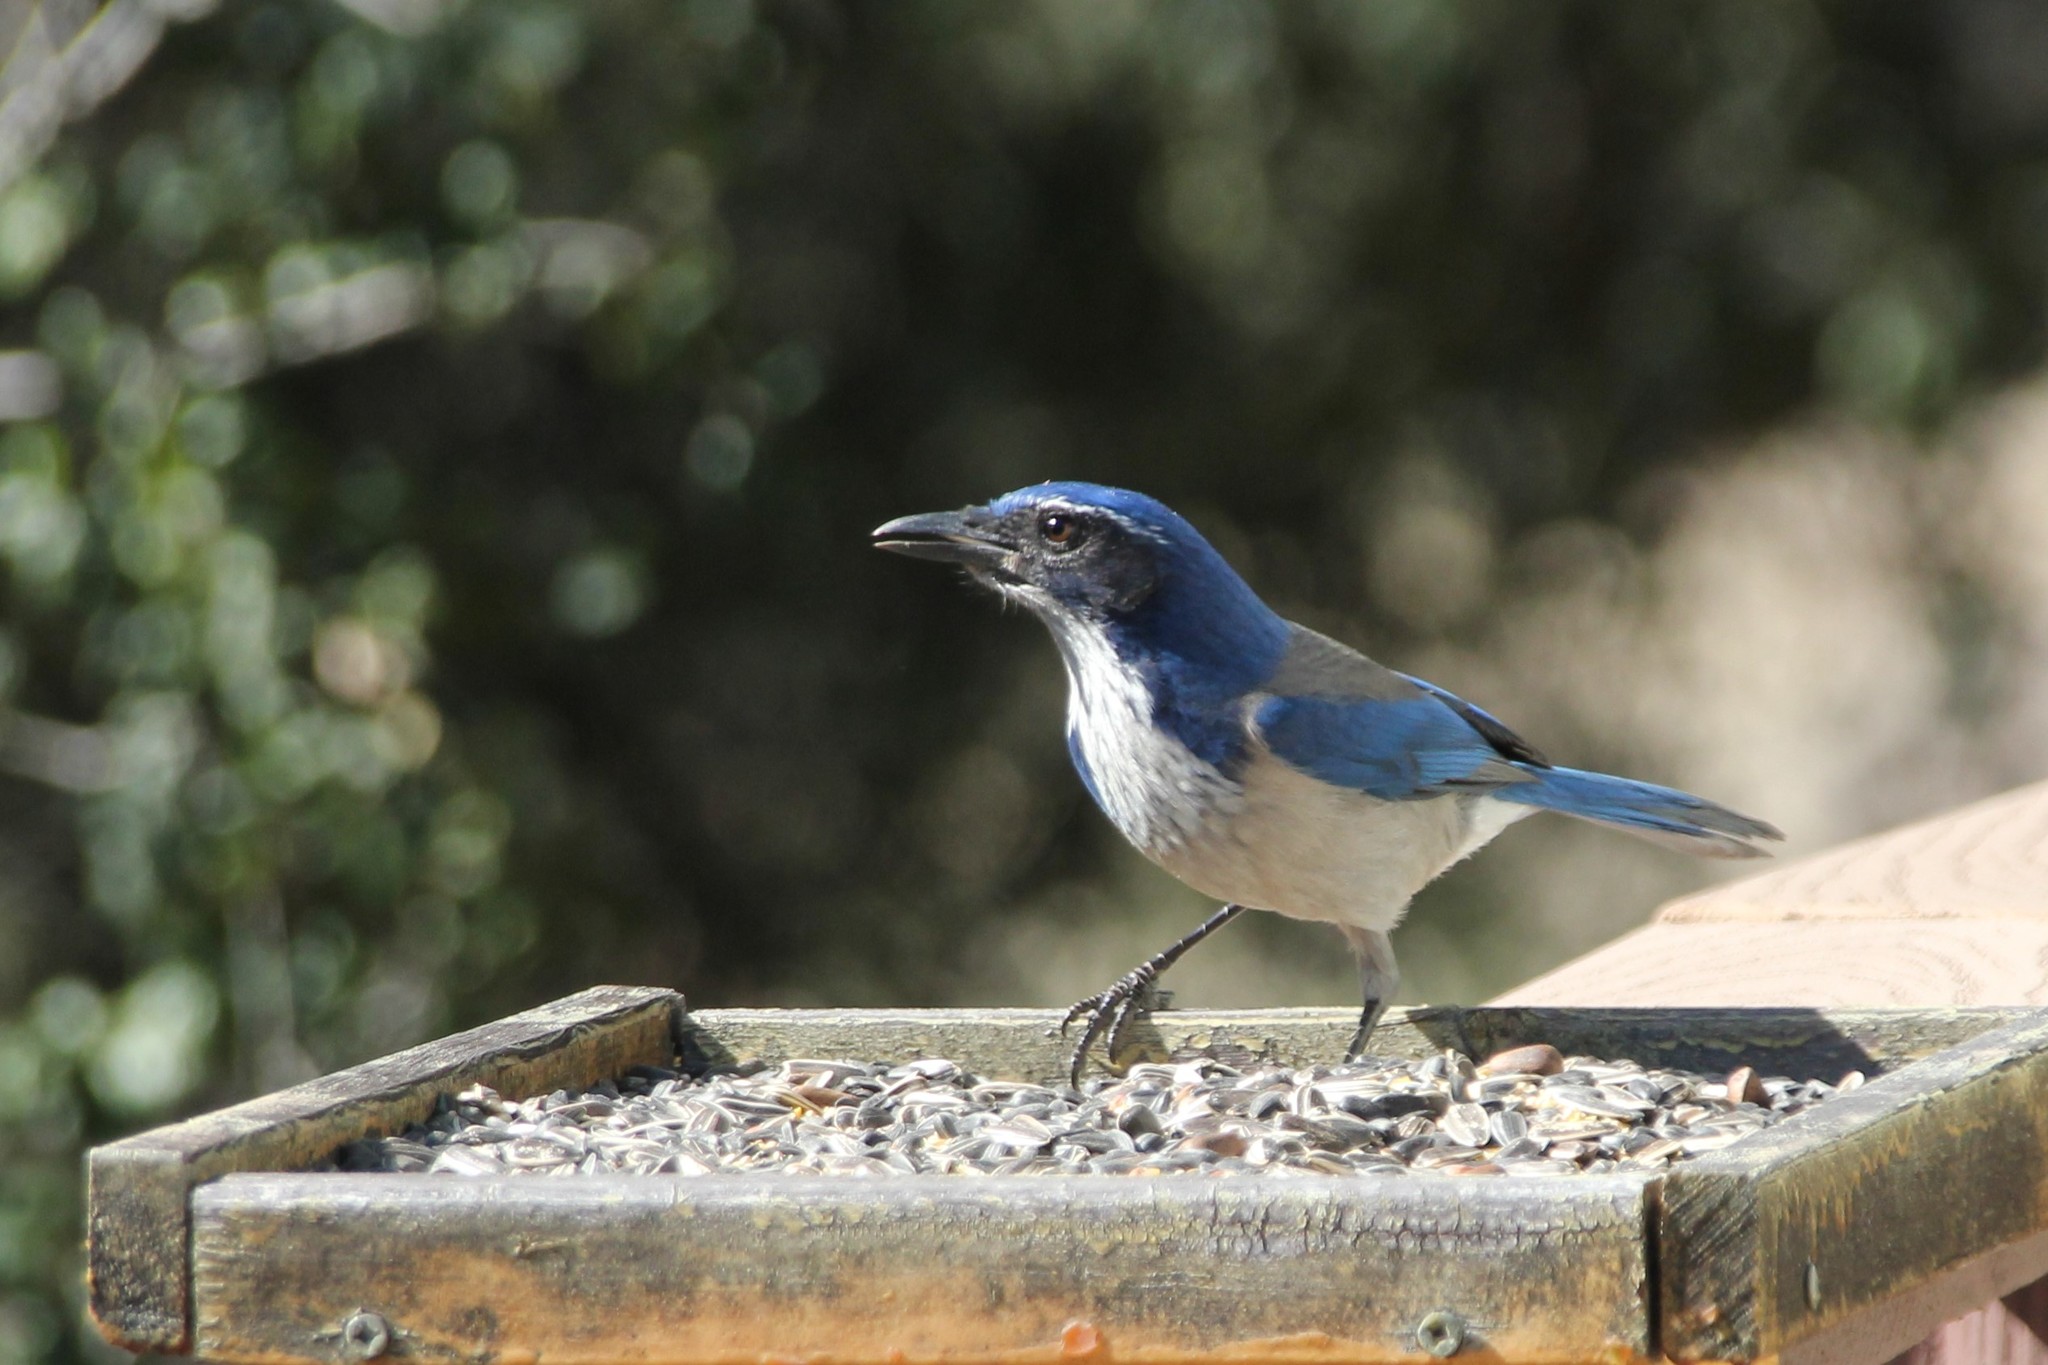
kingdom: Animalia
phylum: Chordata
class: Aves
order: Passeriformes
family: Corvidae
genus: Aphelocoma
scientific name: Aphelocoma californica
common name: California scrub-jay
